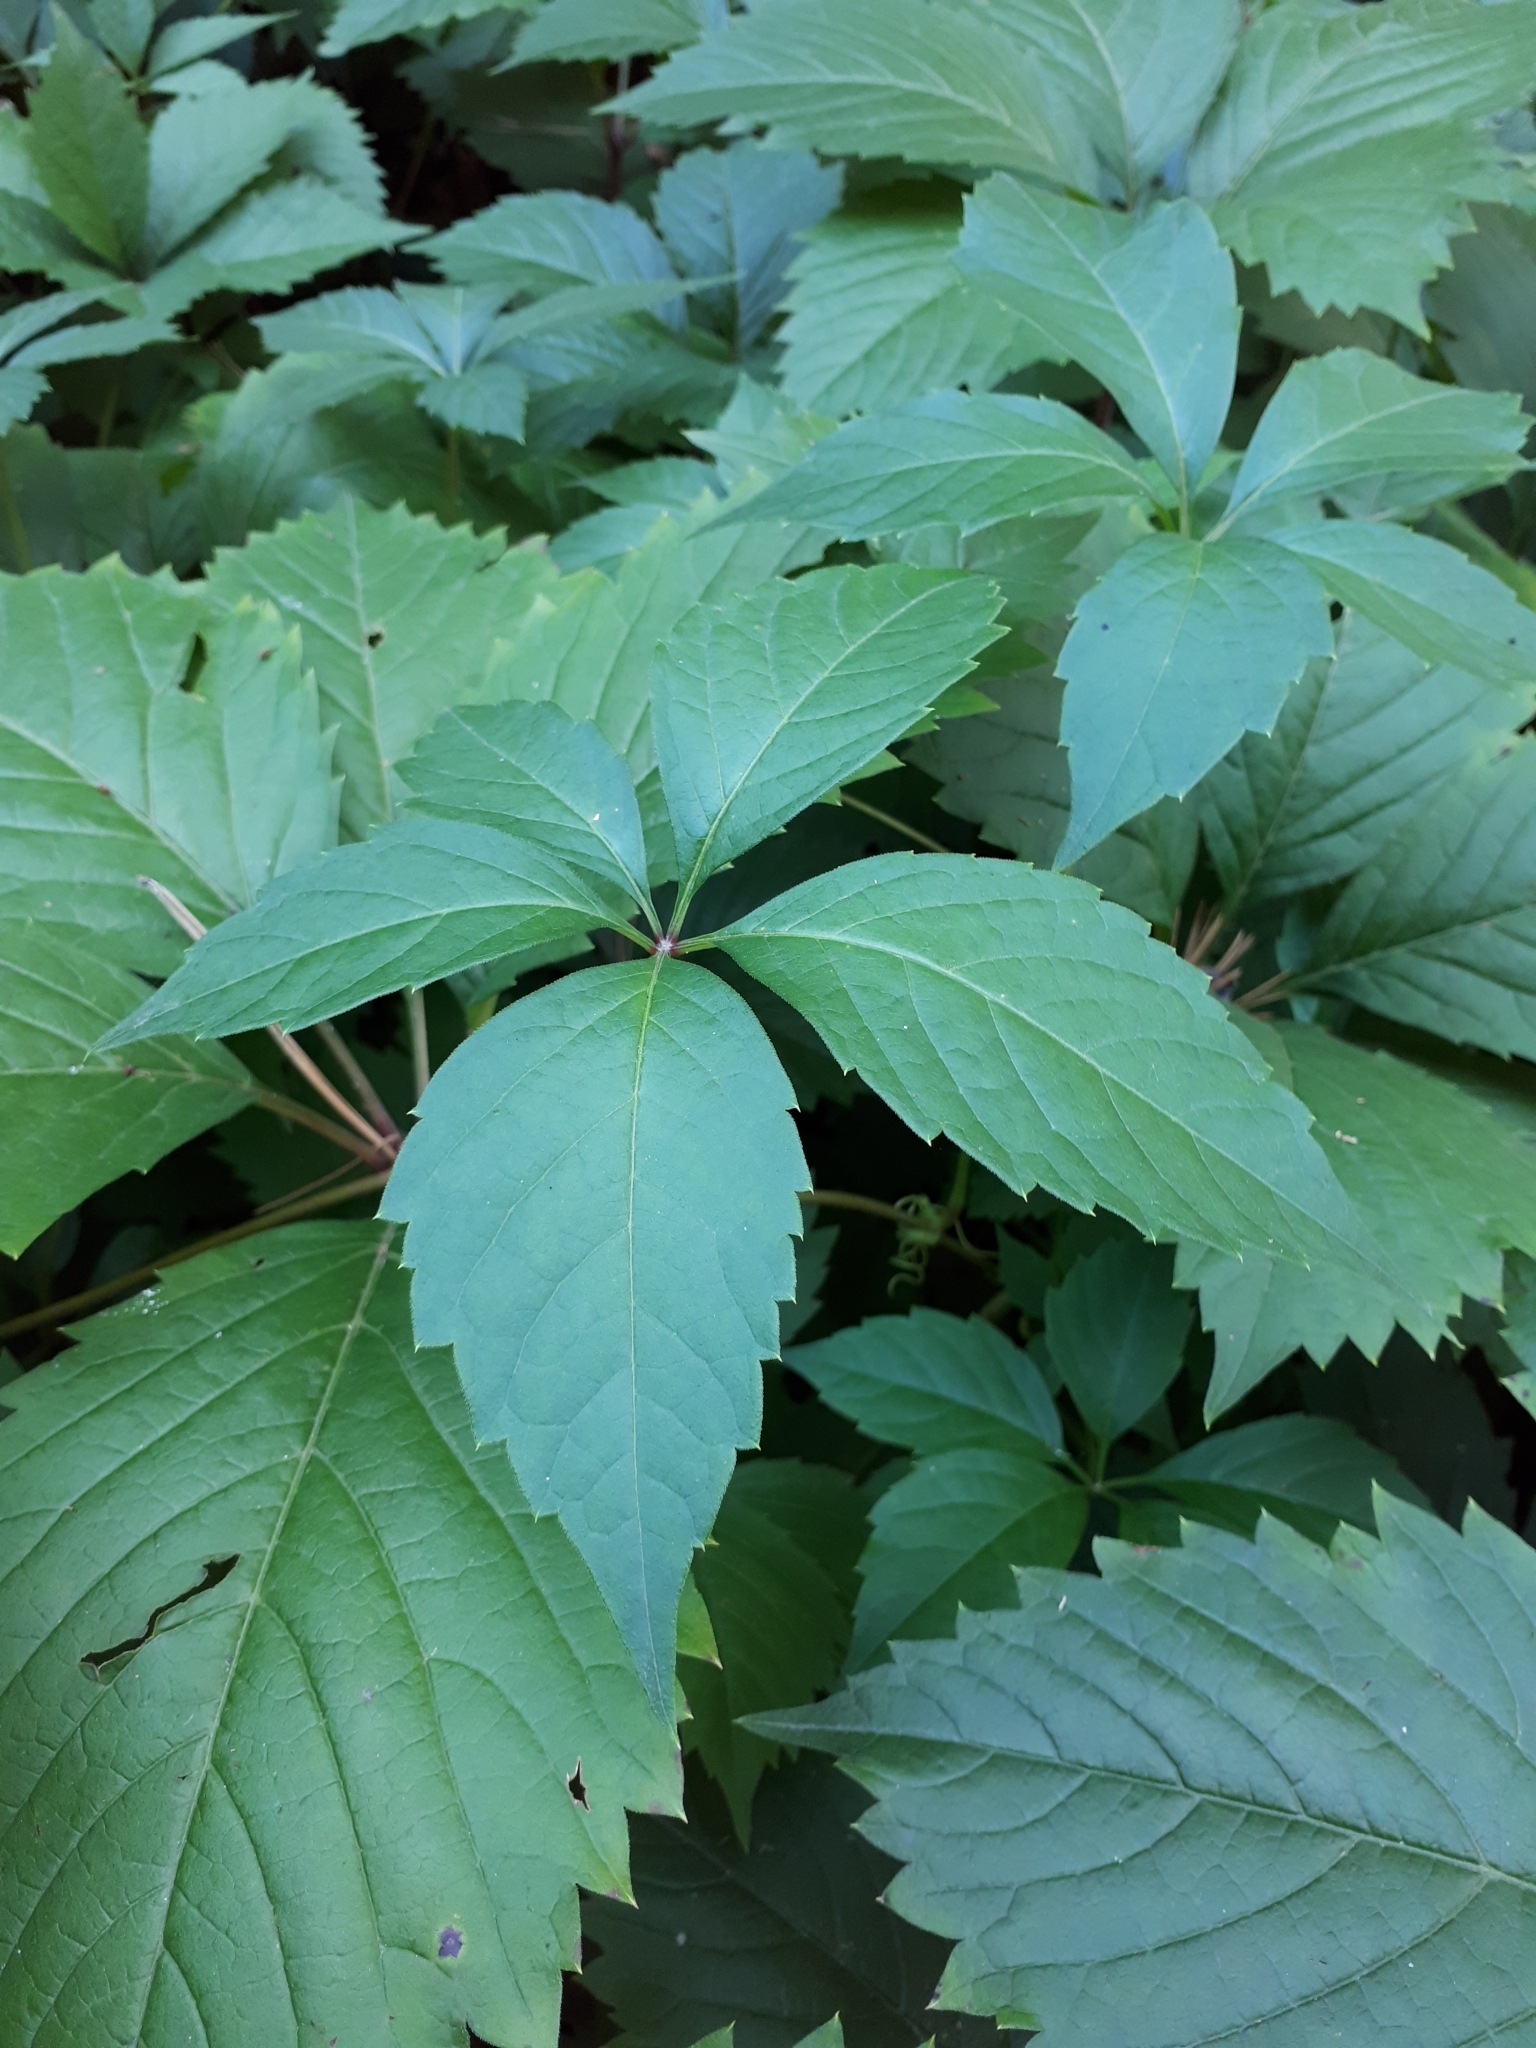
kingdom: Plantae
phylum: Tracheophyta
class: Magnoliopsida
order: Vitales
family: Vitaceae
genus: Parthenocissus
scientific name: Parthenocissus inserta
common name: False virginia-creeper
